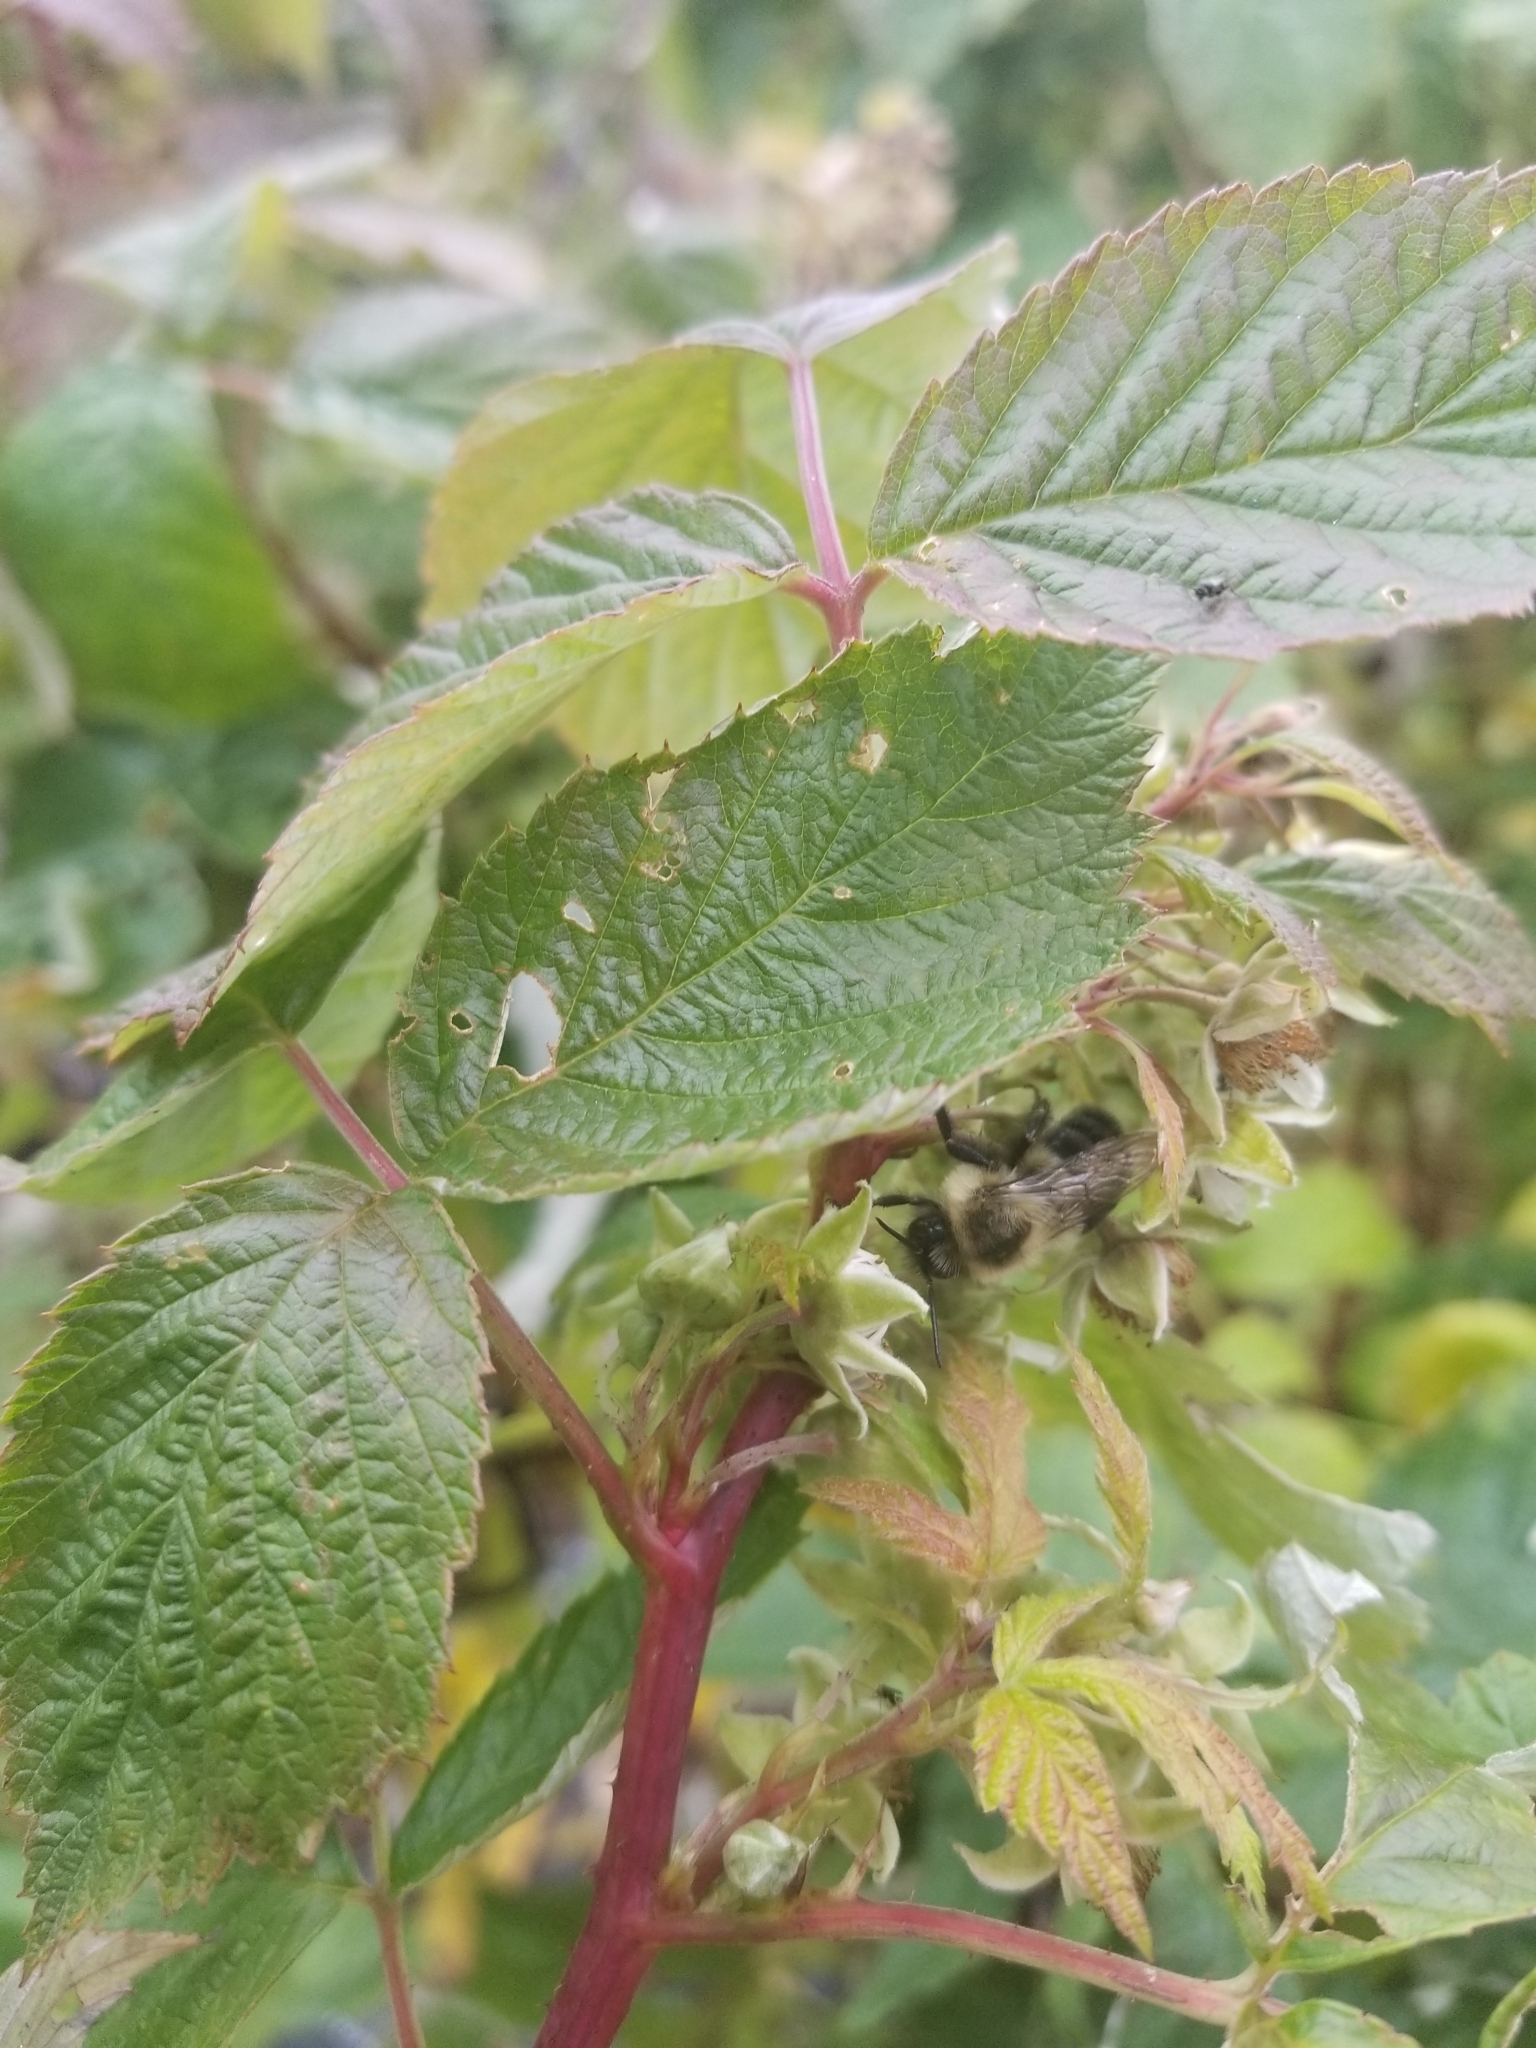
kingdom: Animalia
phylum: Arthropoda
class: Insecta
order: Hymenoptera
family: Apidae
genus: Bombus
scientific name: Bombus impatiens
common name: Common eastern bumble bee
